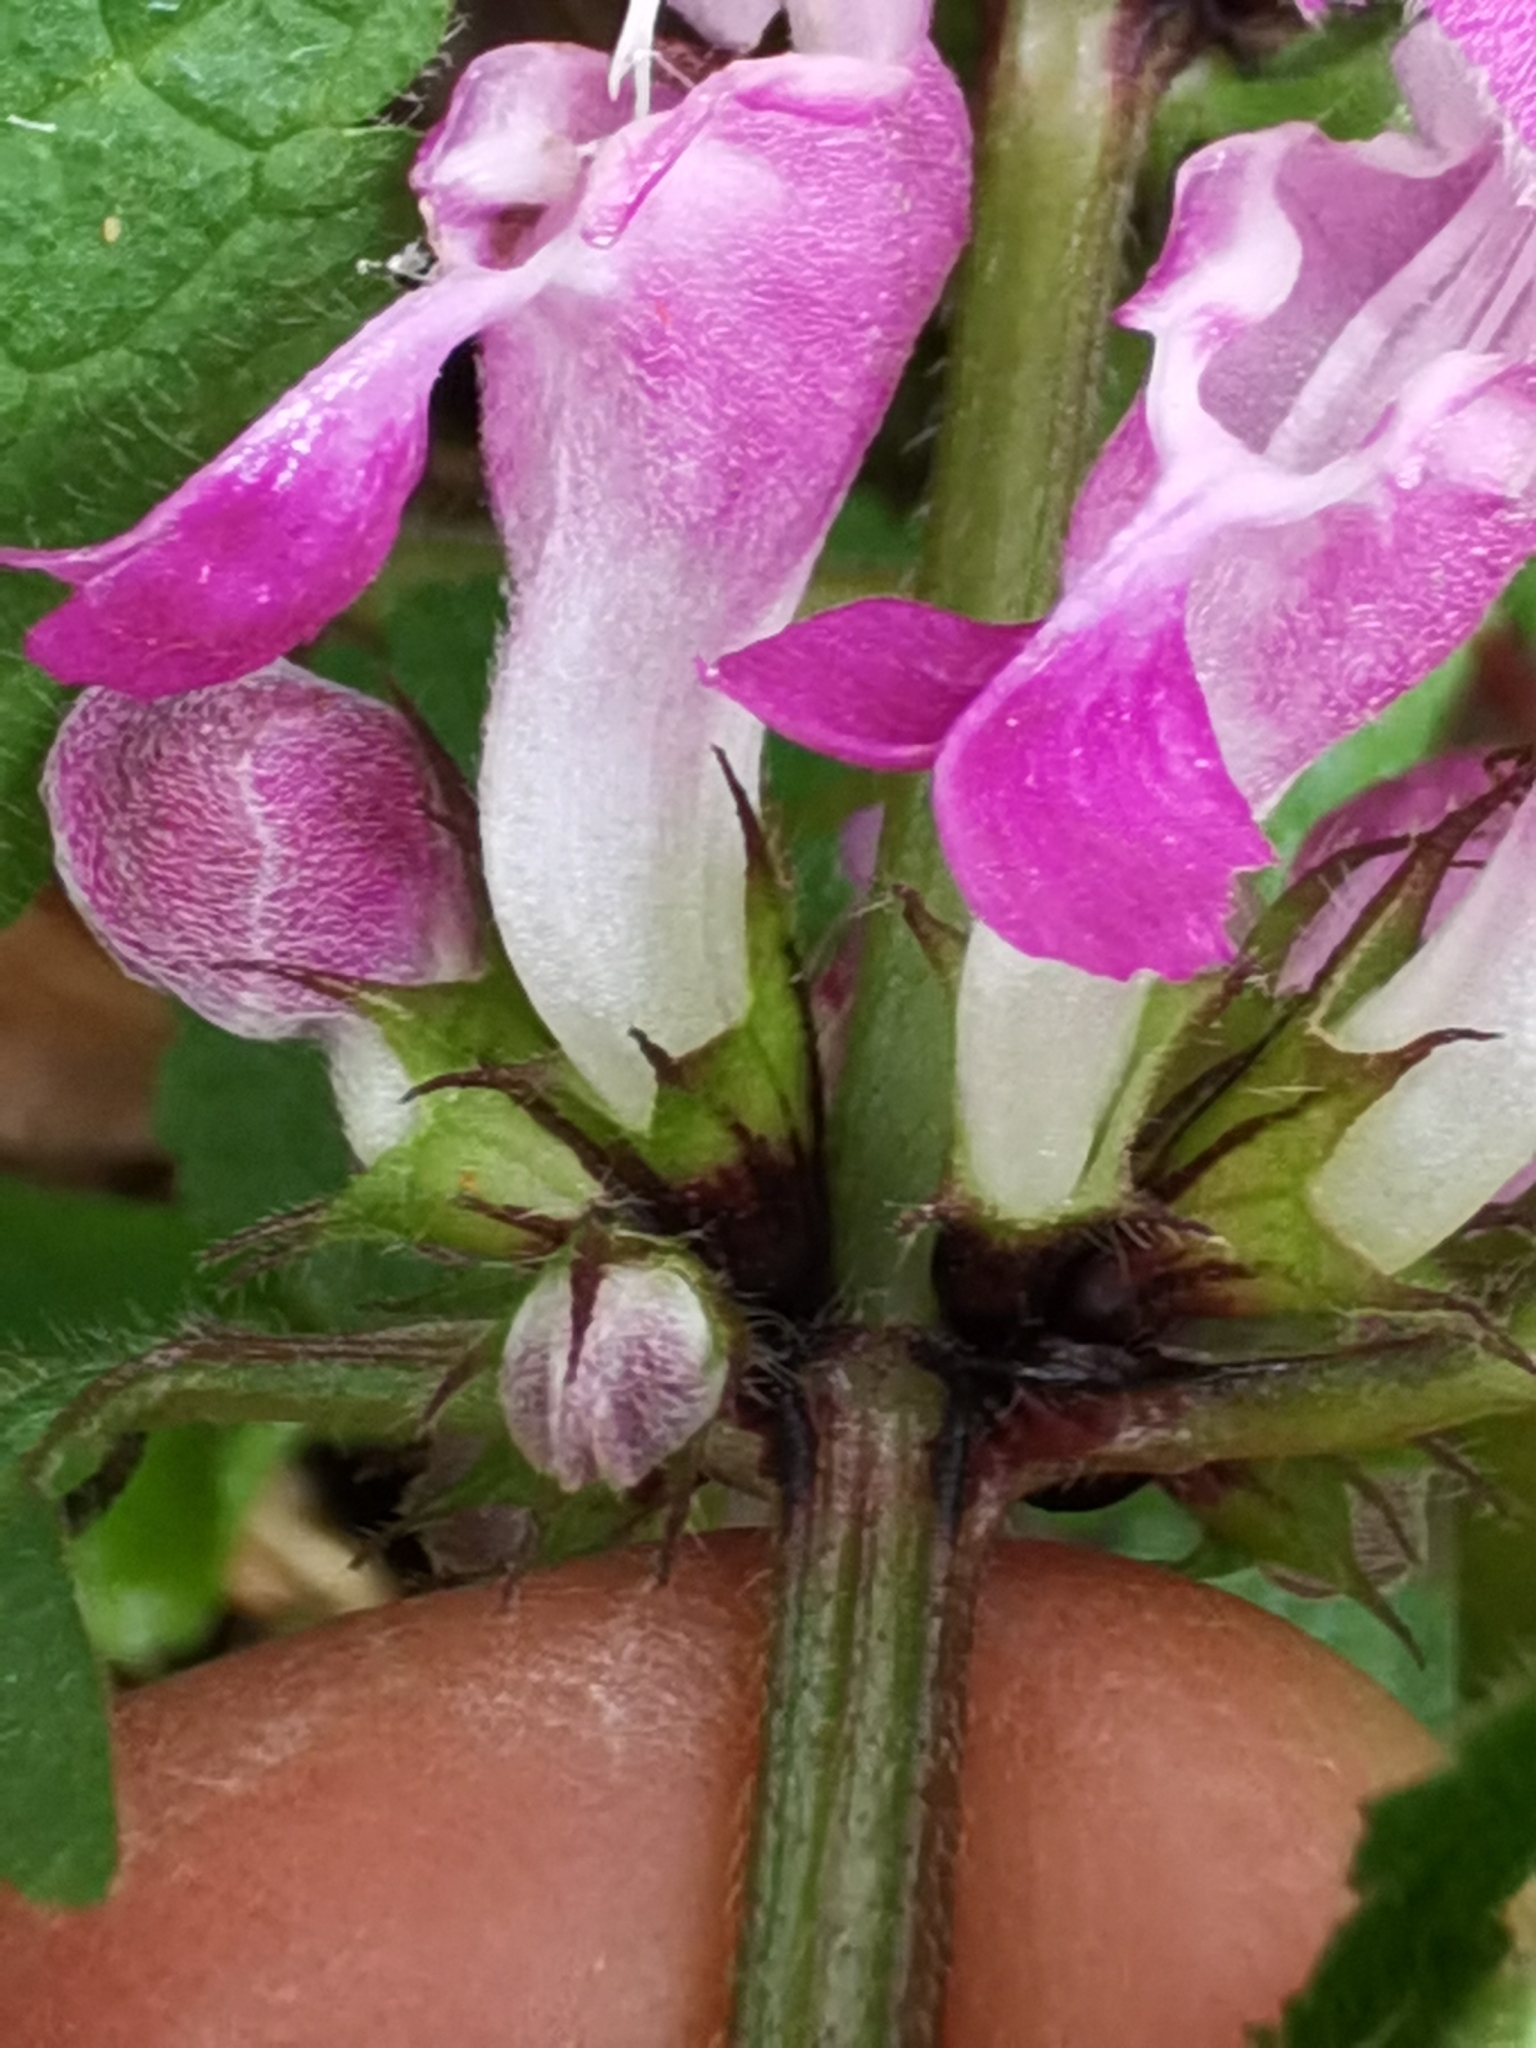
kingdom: Plantae
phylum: Tracheophyta
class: Magnoliopsida
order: Lamiales
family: Lamiaceae
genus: Lamium
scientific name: Lamium maculatum
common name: Spotted dead-nettle
